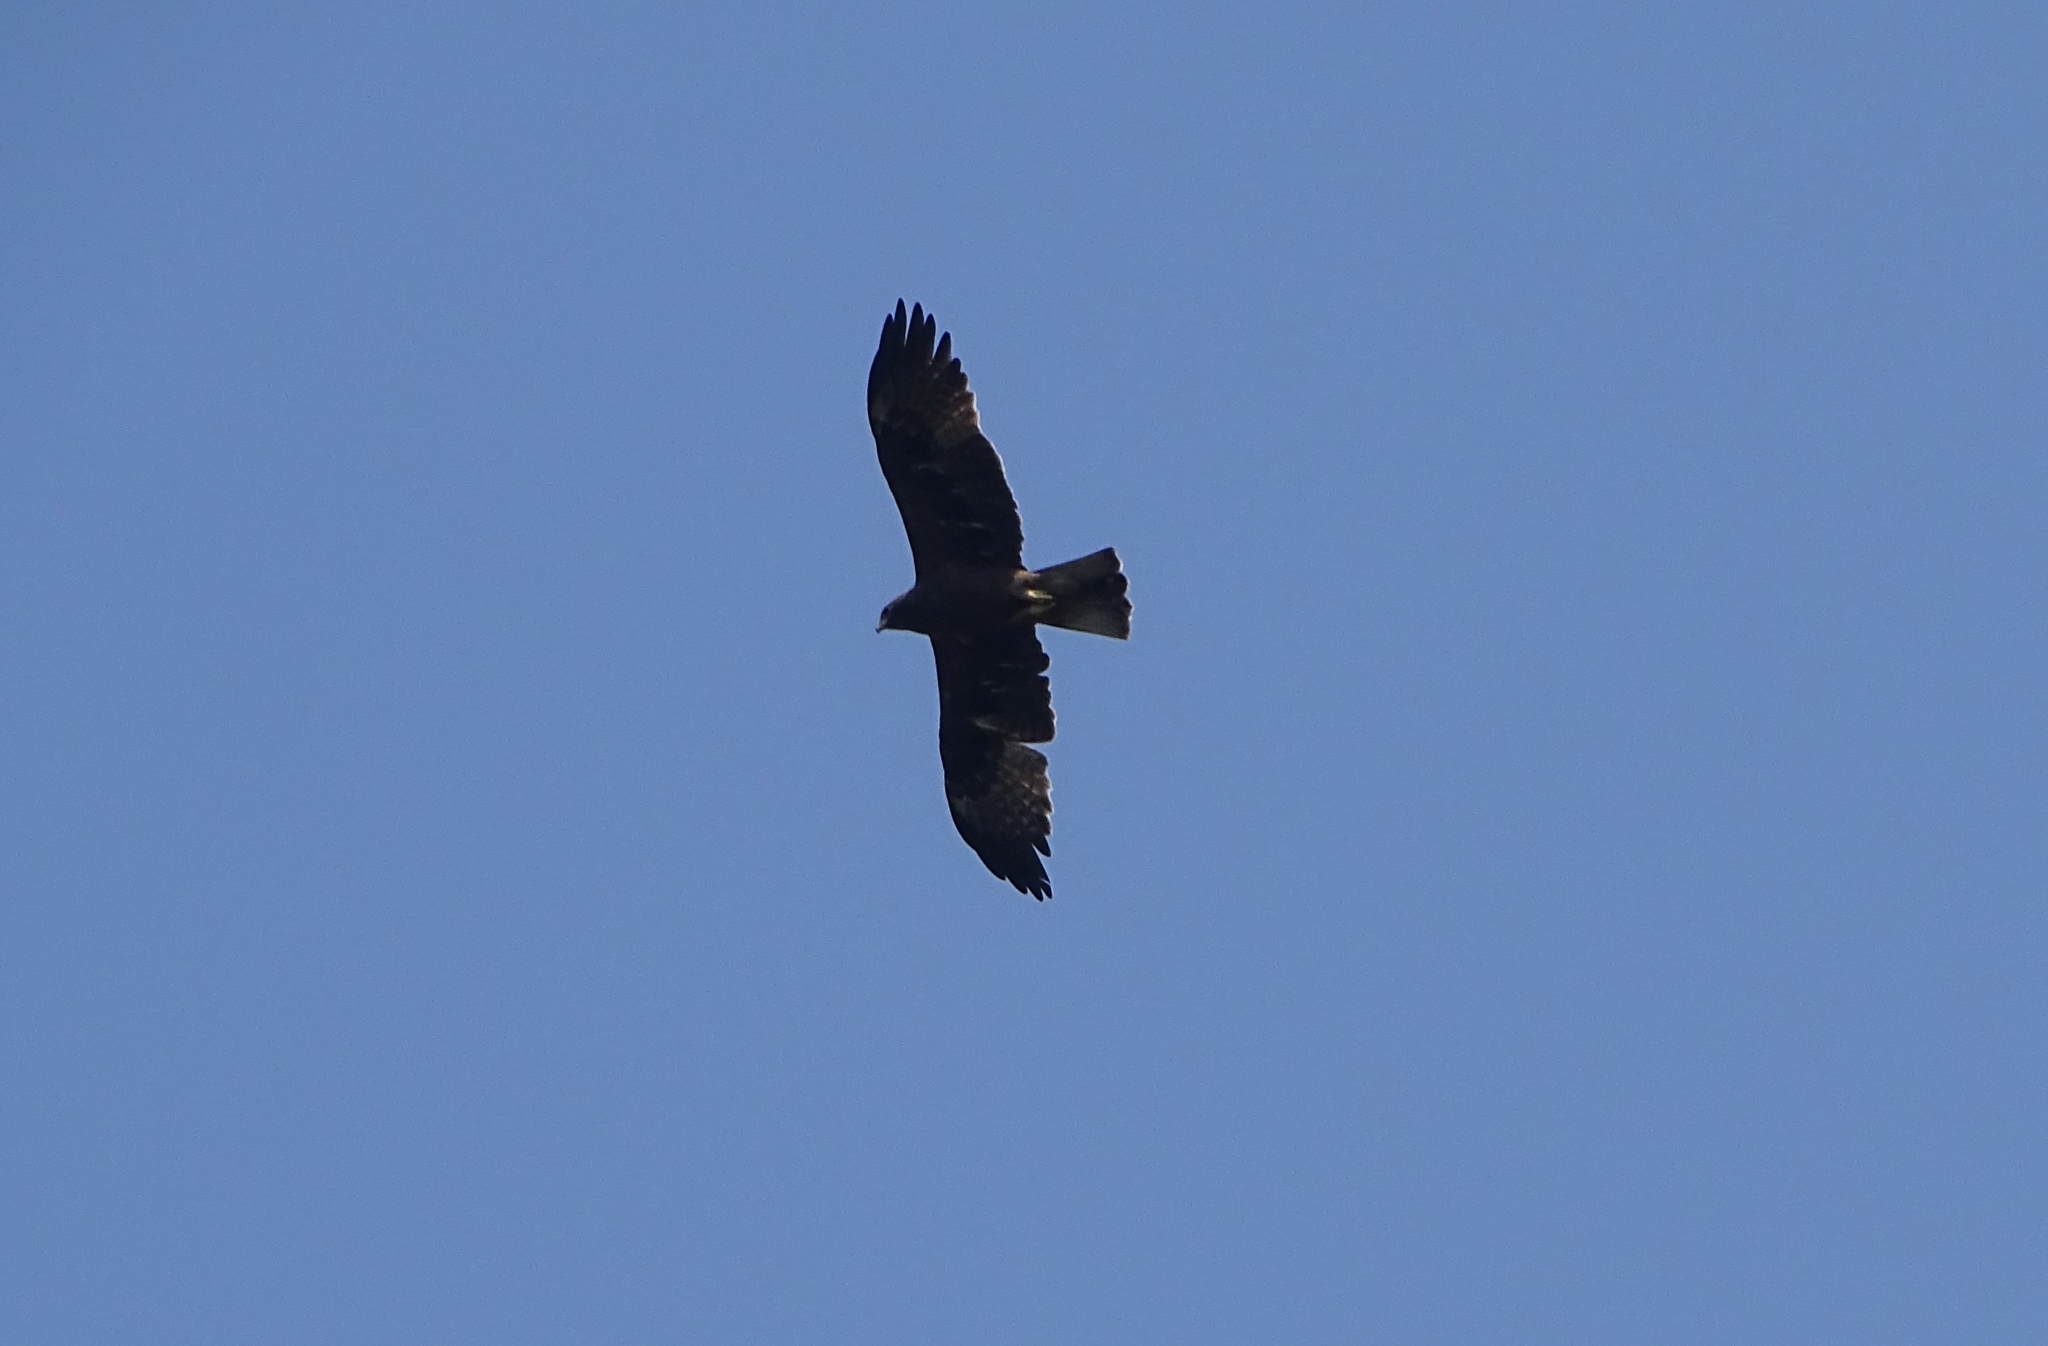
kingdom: Animalia
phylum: Chordata
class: Aves
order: Accipitriformes
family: Accipitridae
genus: Hieraaetus
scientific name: Hieraaetus pennatus
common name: Booted eagle
